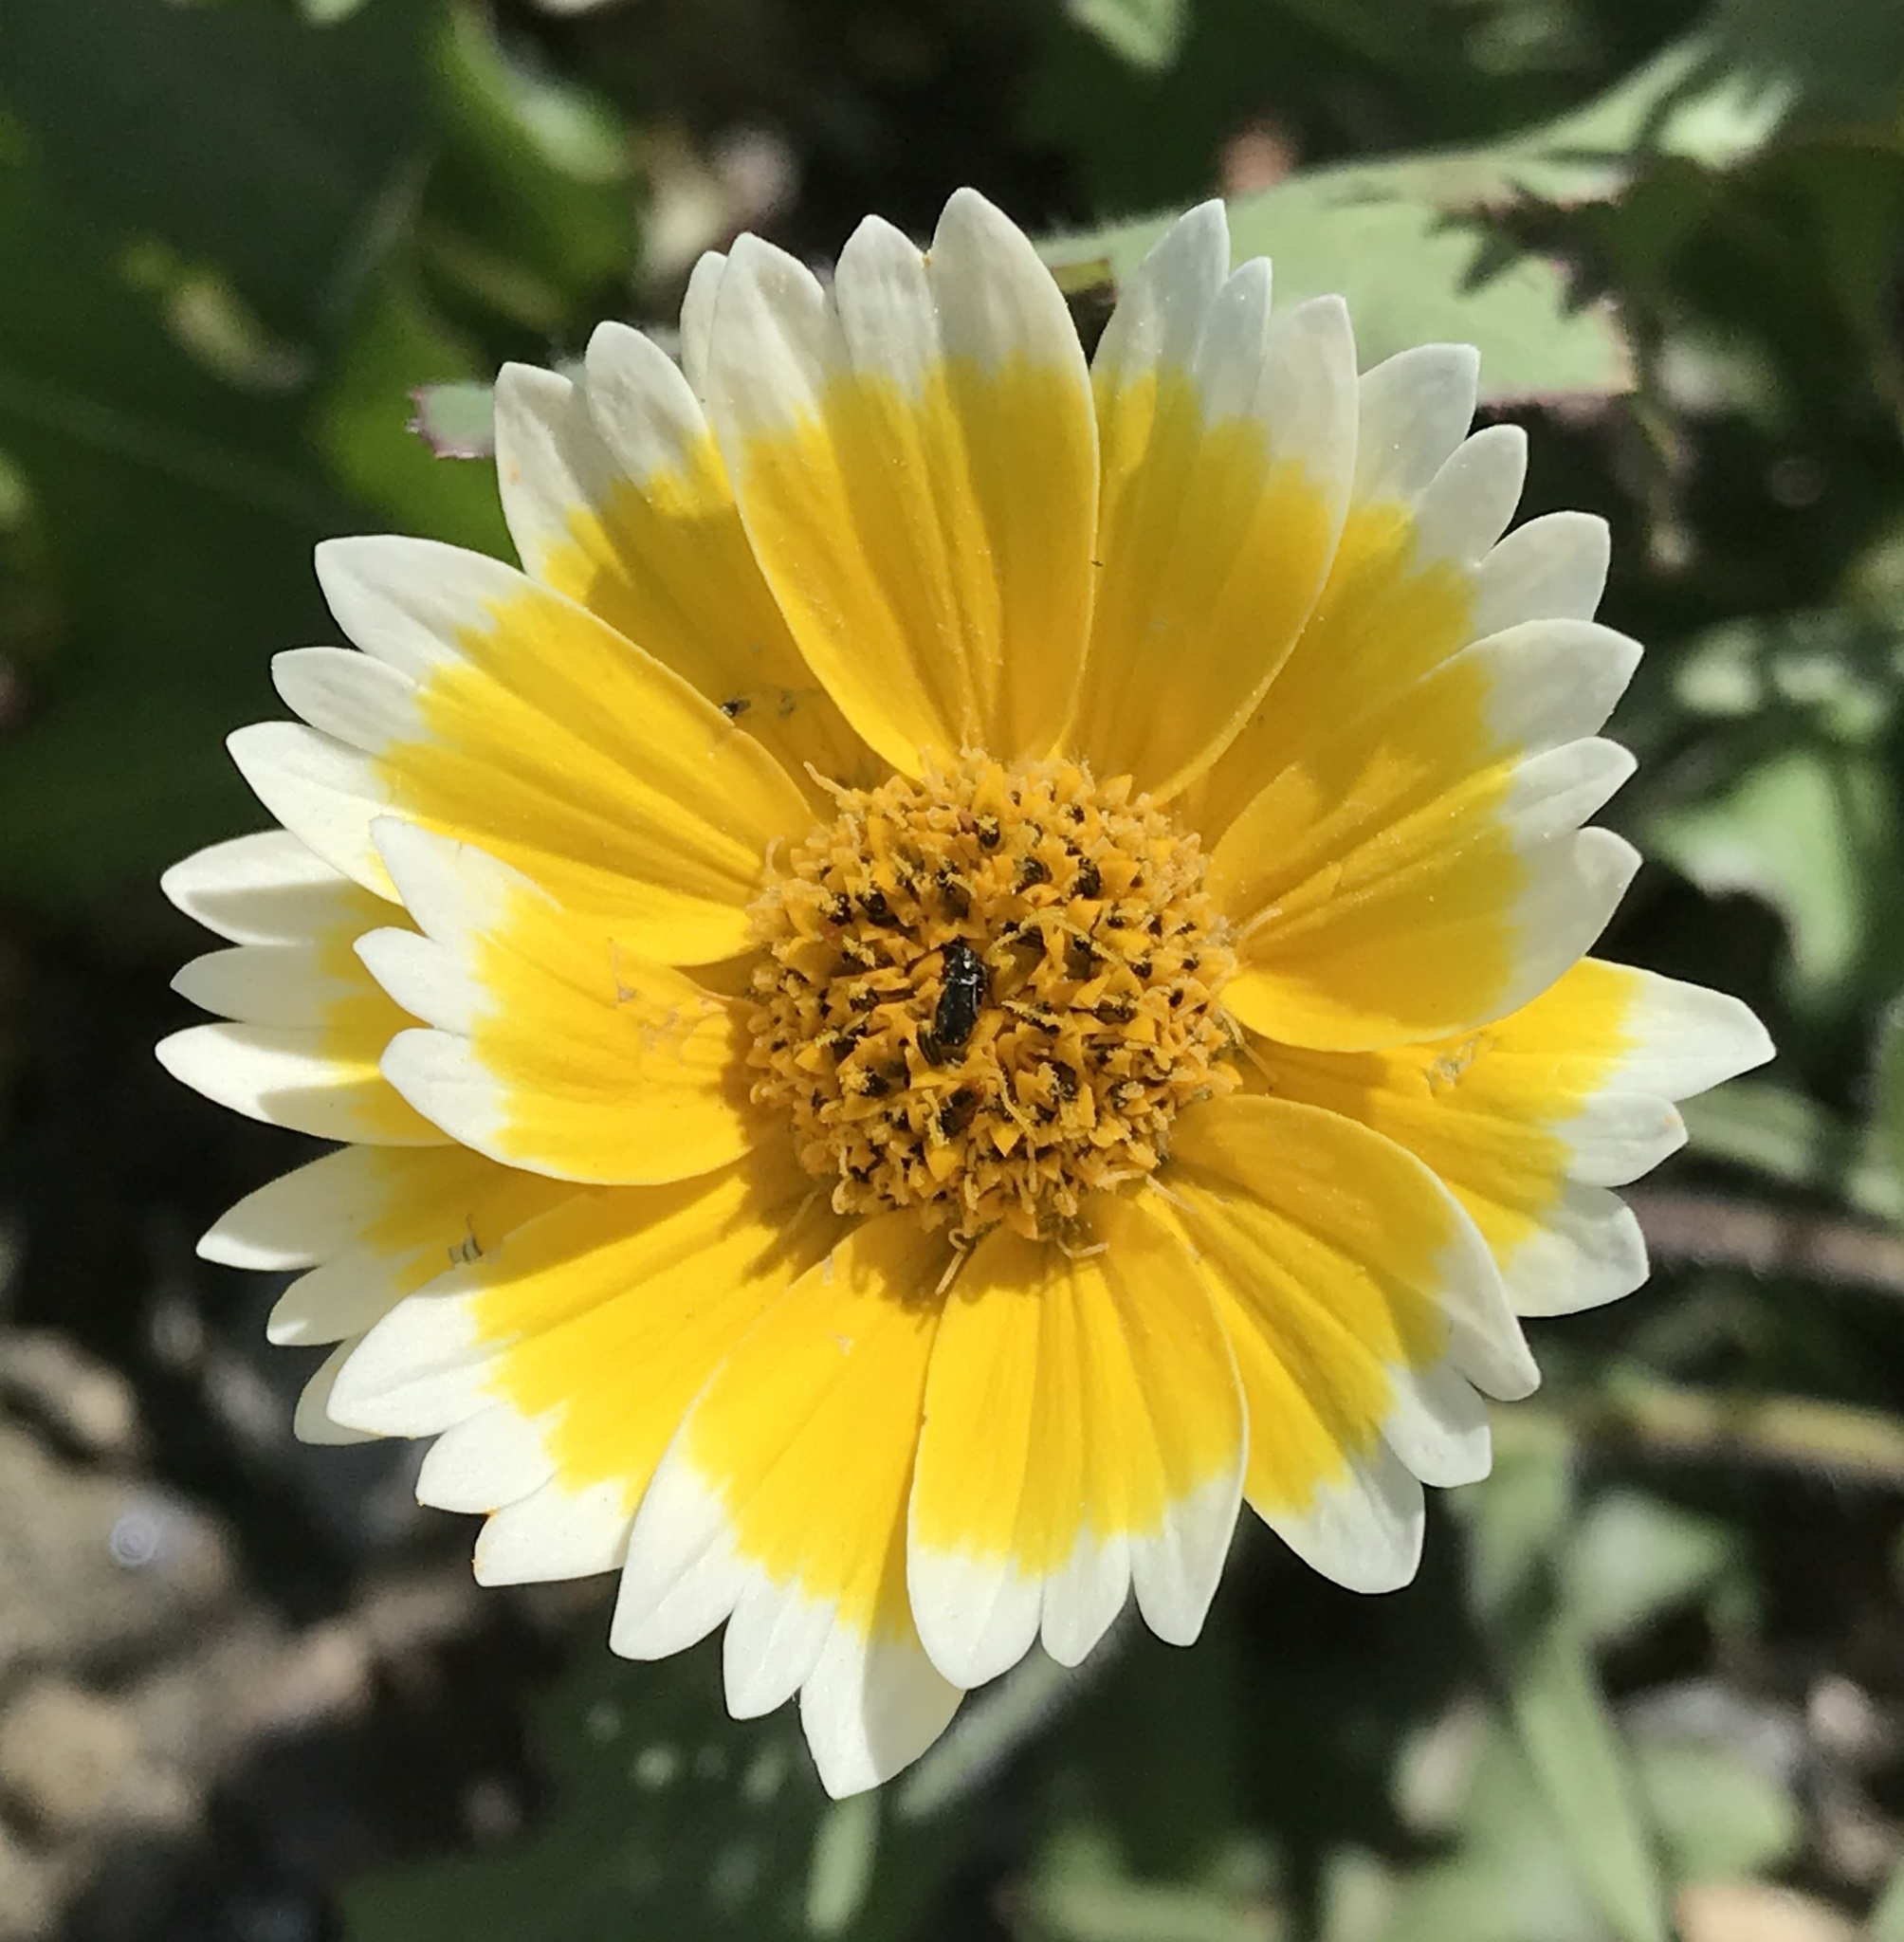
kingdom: Plantae
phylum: Tracheophyta
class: Magnoliopsida
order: Asterales
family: Asteraceae
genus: Layia
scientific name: Layia platyglossa
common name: Tidy-tips
